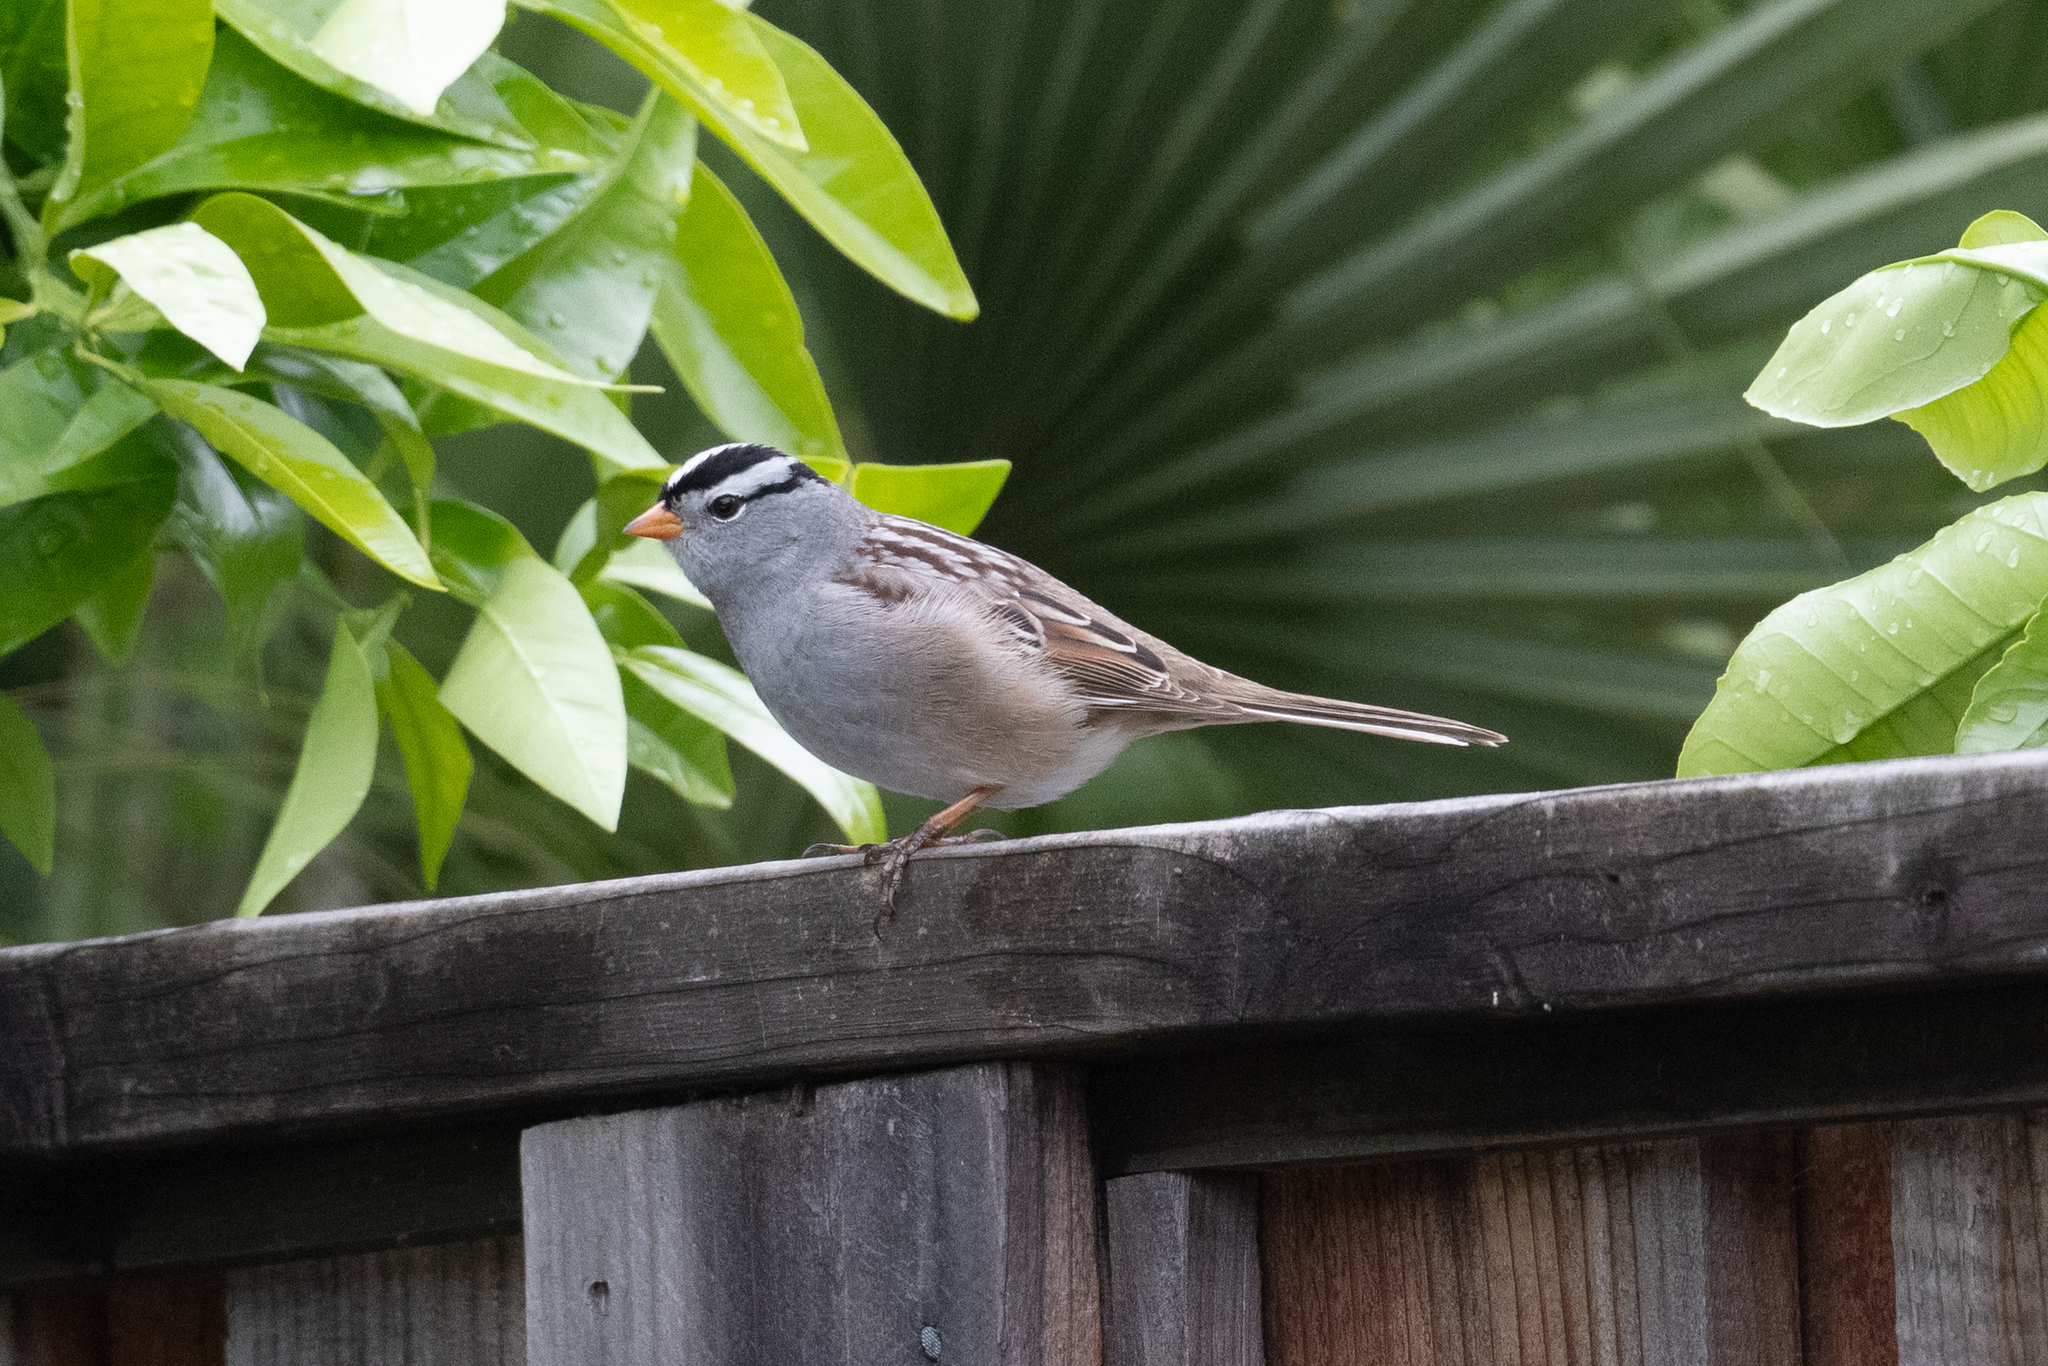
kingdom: Animalia
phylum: Chordata
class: Aves
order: Passeriformes
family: Passerellidae
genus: Zonotrichia
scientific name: Zonotrichia leucophrys
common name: White-crowned sparrow
